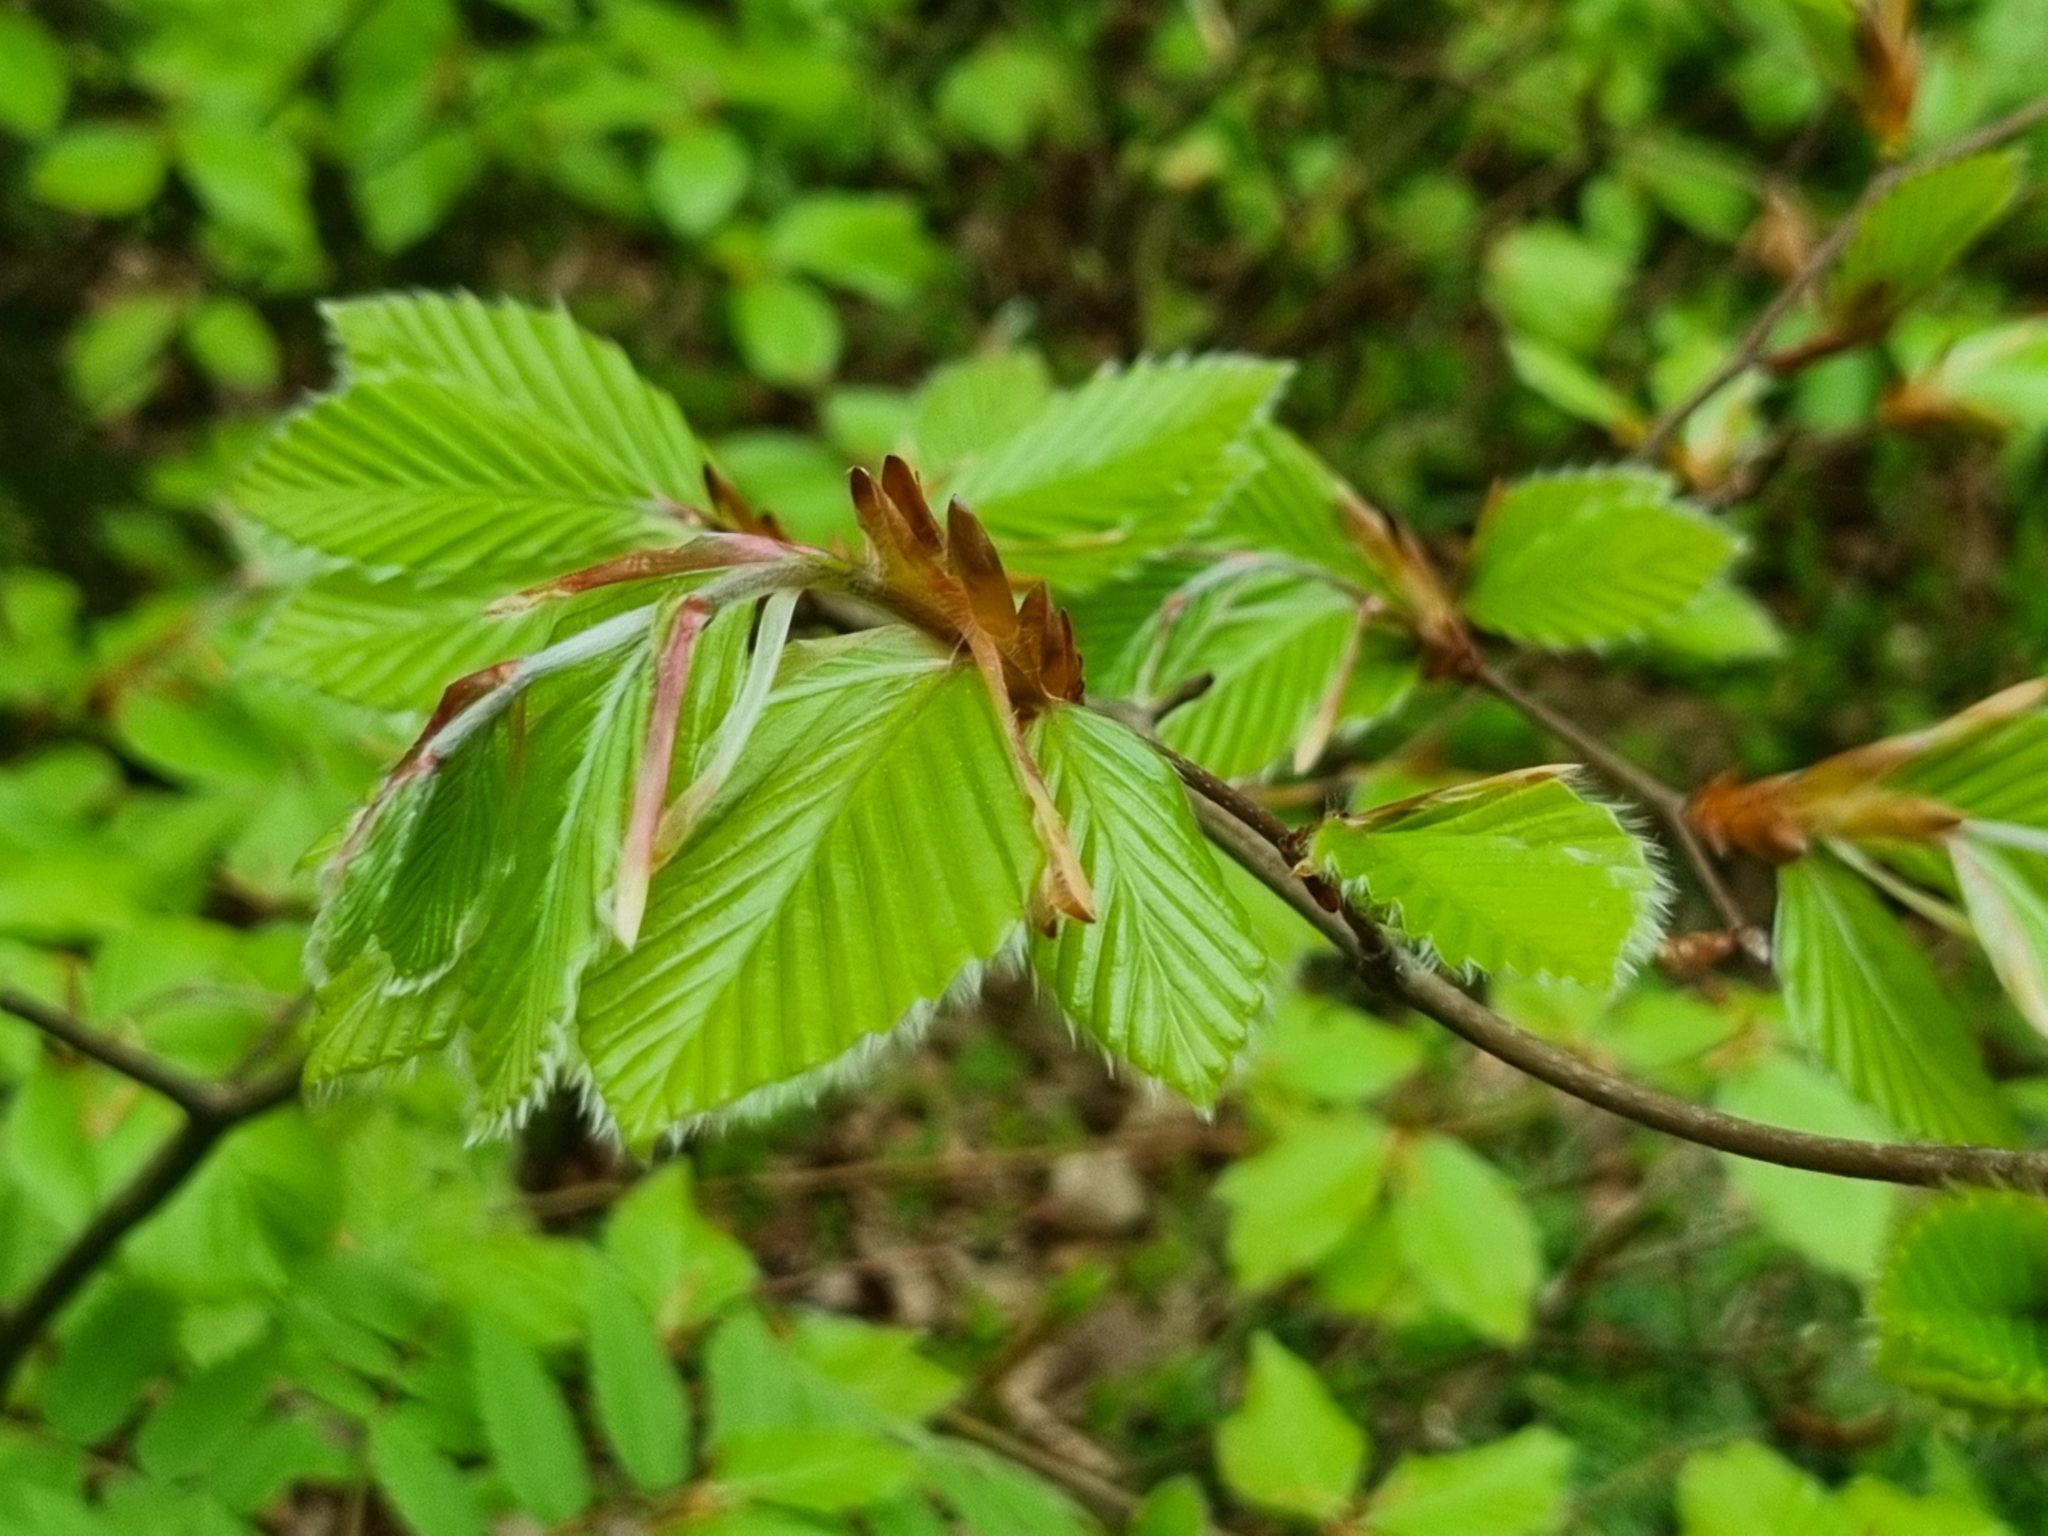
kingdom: Plantae
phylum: Tracheophyta
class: Magnoliopsida
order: Fagales
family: Fagaceae
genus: Fagus
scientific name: Fagus sylvatica
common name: Beech
